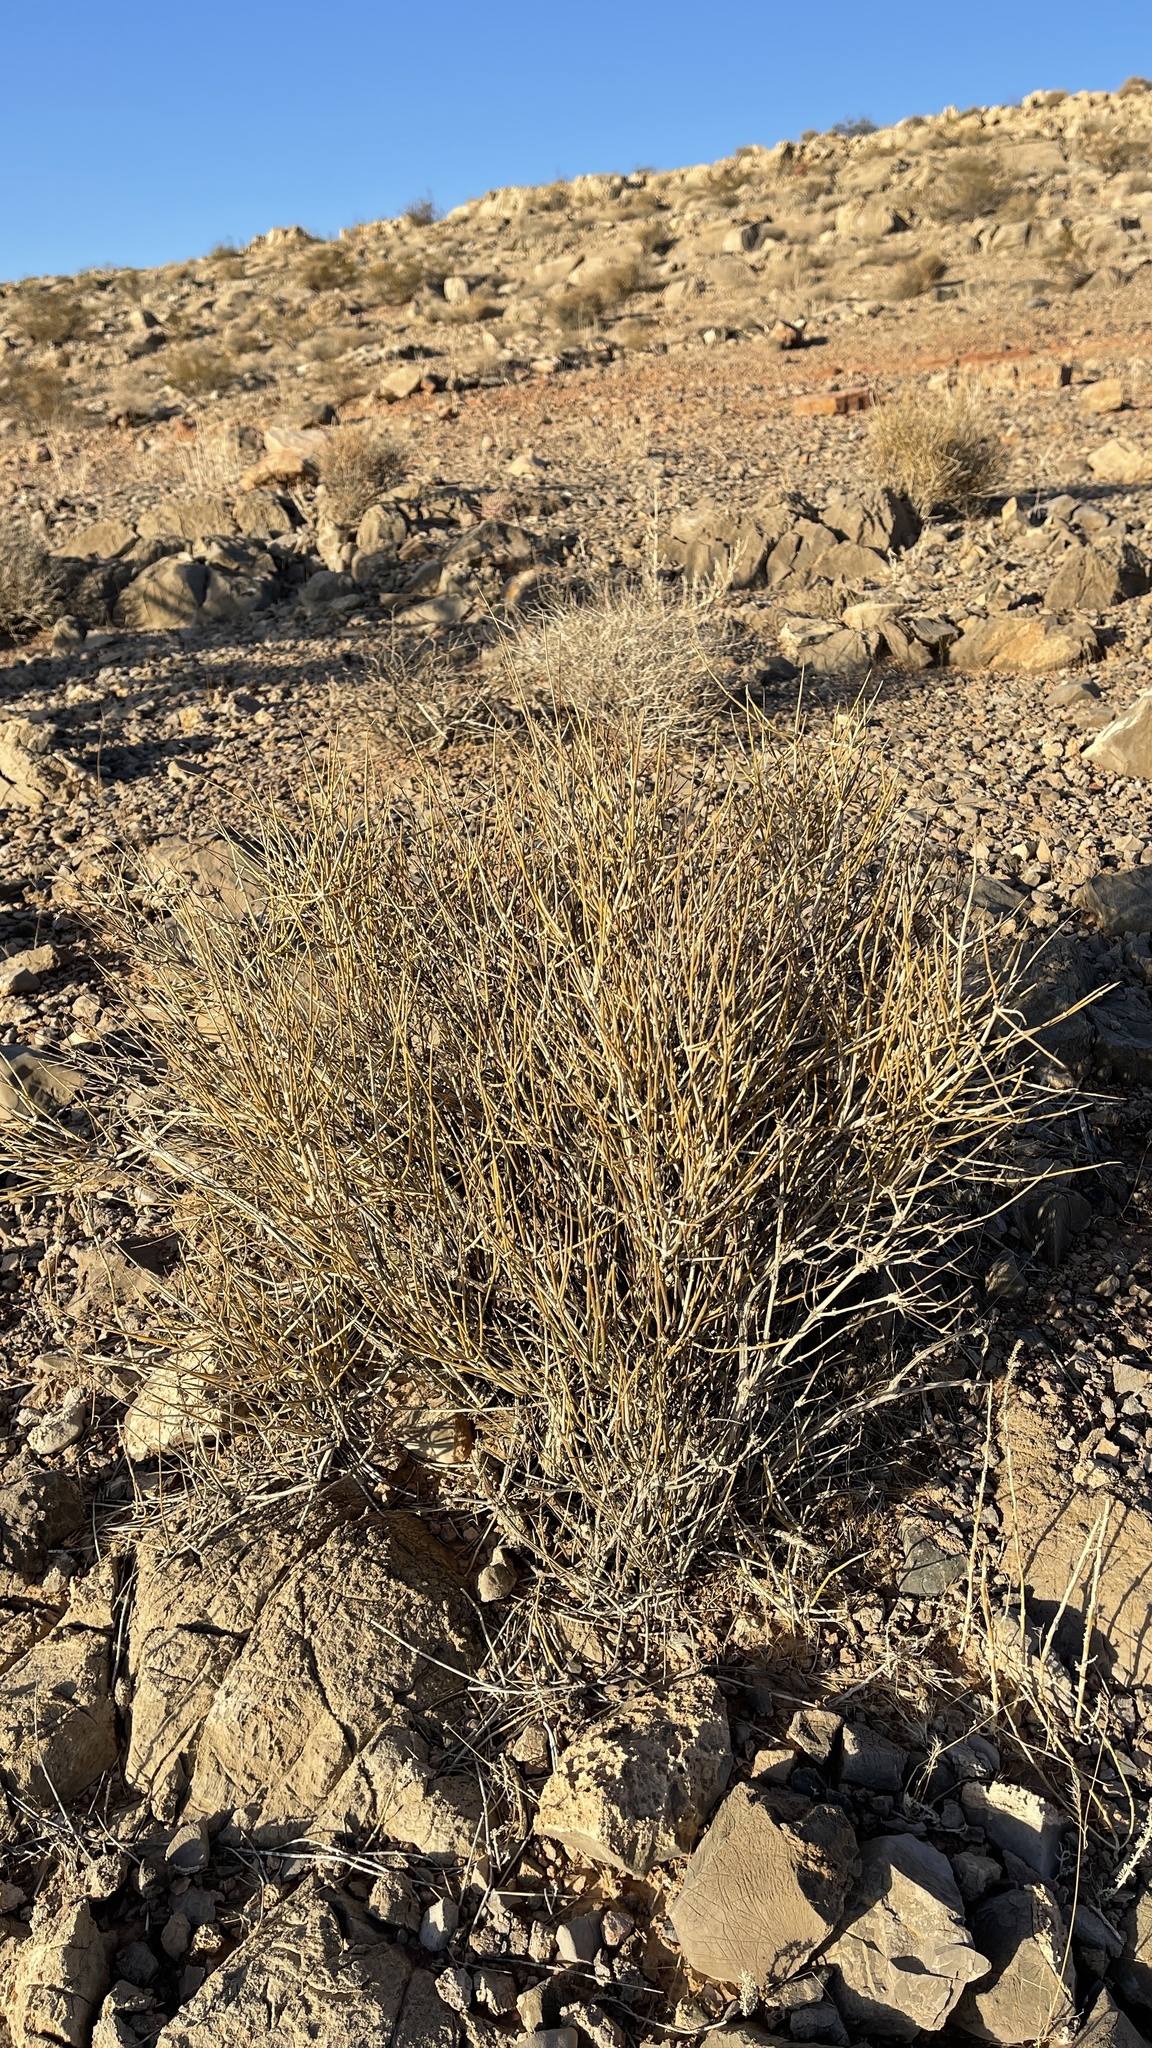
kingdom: Plantae
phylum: Tracheophyta
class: Gnetopsida
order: Ephedrales
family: Ephedraceae
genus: Ephedra
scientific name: Ephedra nevadensis
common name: Gray ephedra
